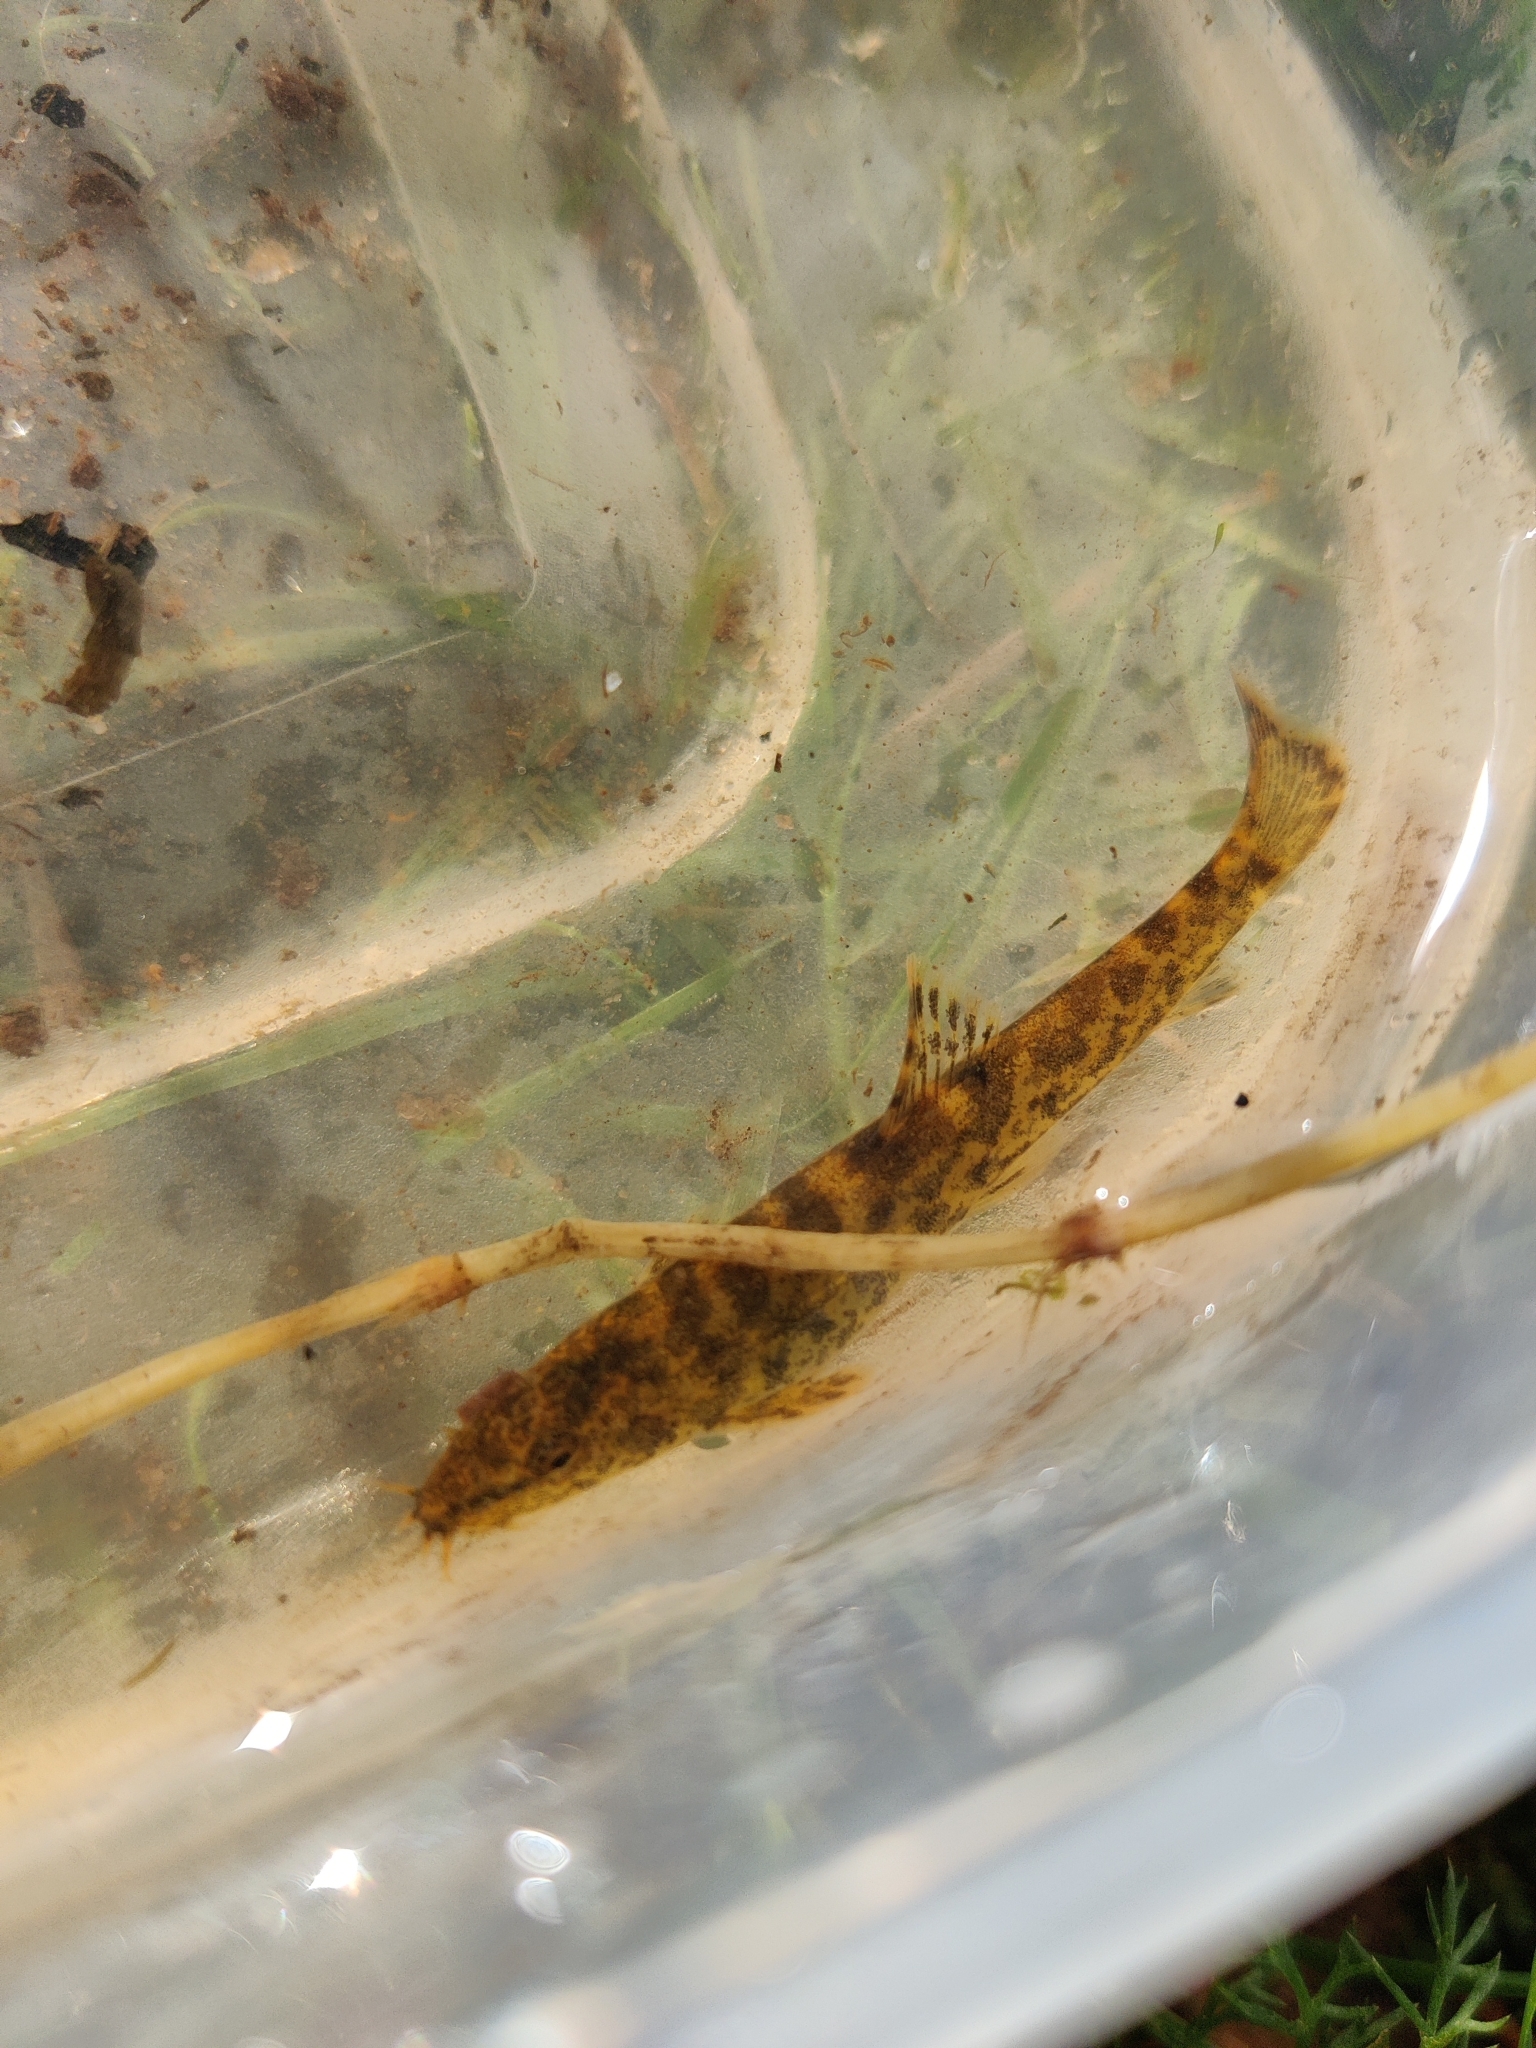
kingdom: Animalia
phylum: Chordata
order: Cypriniformes
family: Nemacheilidae
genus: Barbatula
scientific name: Barbatula barbatula
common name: Stone loach
